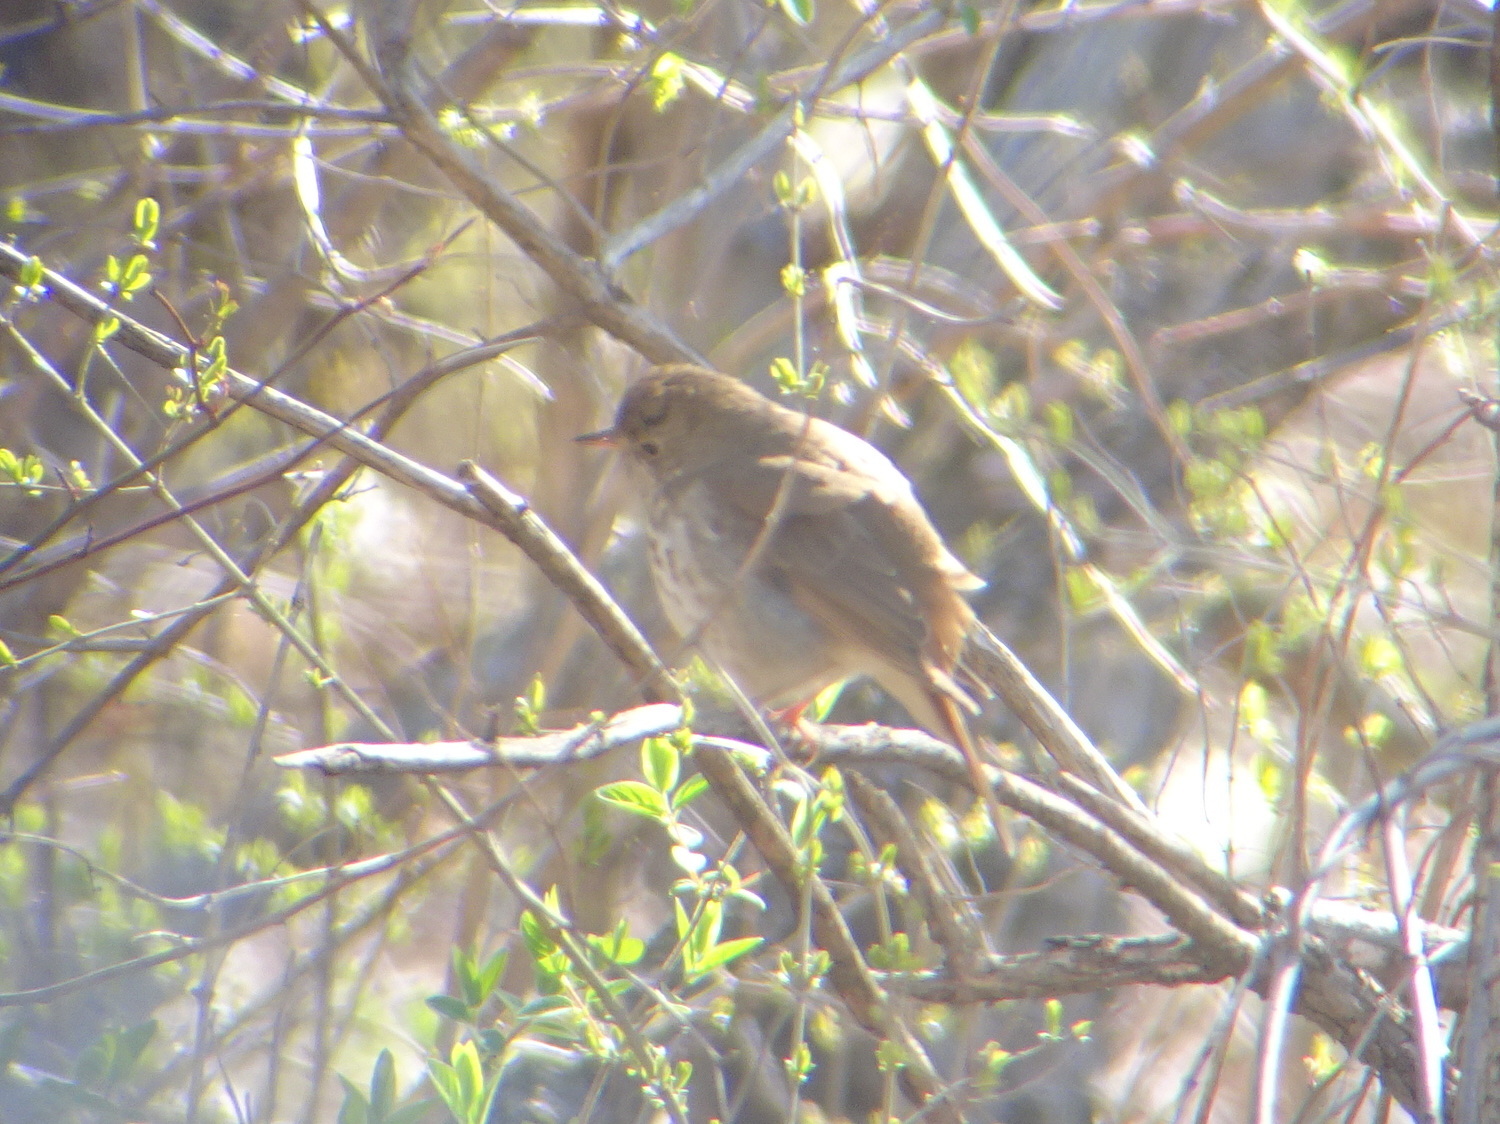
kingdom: Animalia
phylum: Chordata
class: Aves
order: Passeriformes
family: Turdidae
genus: Catharus
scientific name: Catharus guttatus
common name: Hermit thrush
